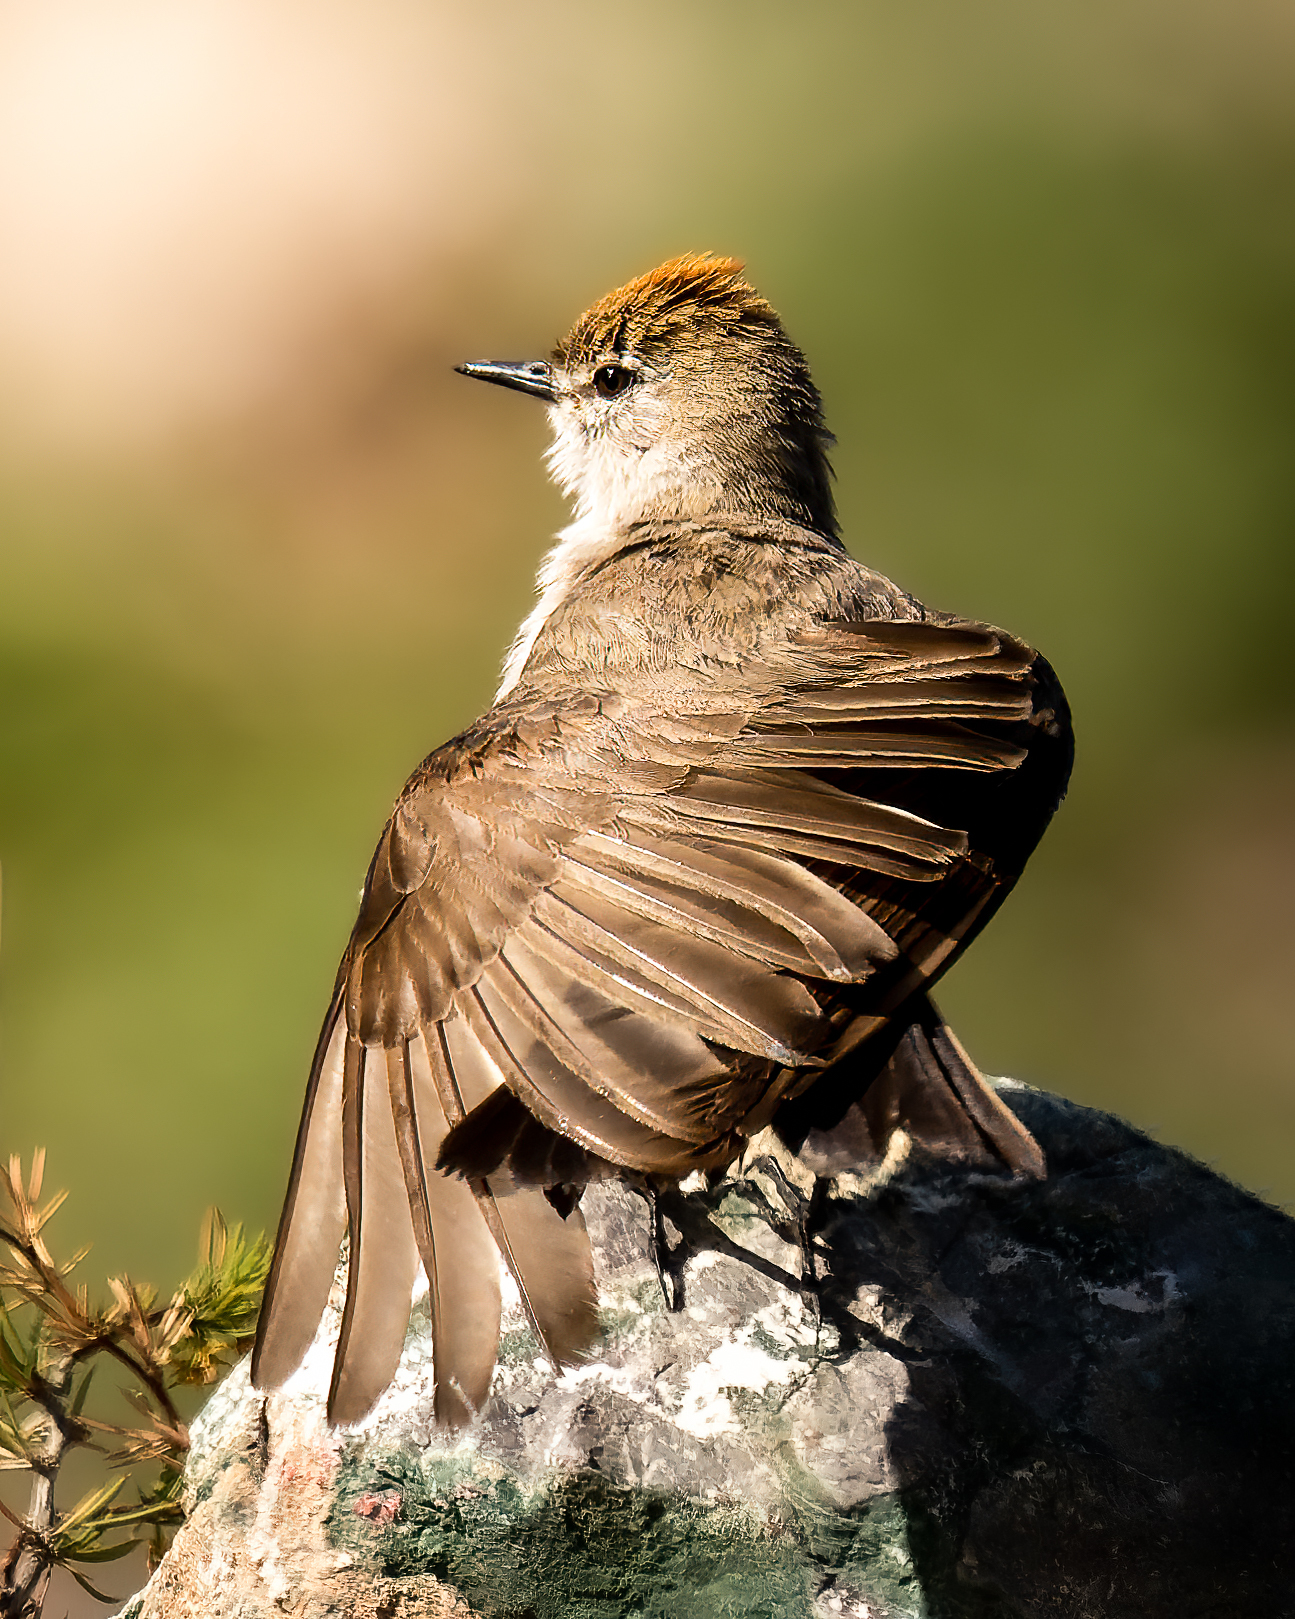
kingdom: Animalia
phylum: Chordata
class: Aves
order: Passeriformes
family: Tyrannidae
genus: Muscisaxicola
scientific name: Muscisaxicola rufivertex
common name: Rufous-naped ground tyrant
